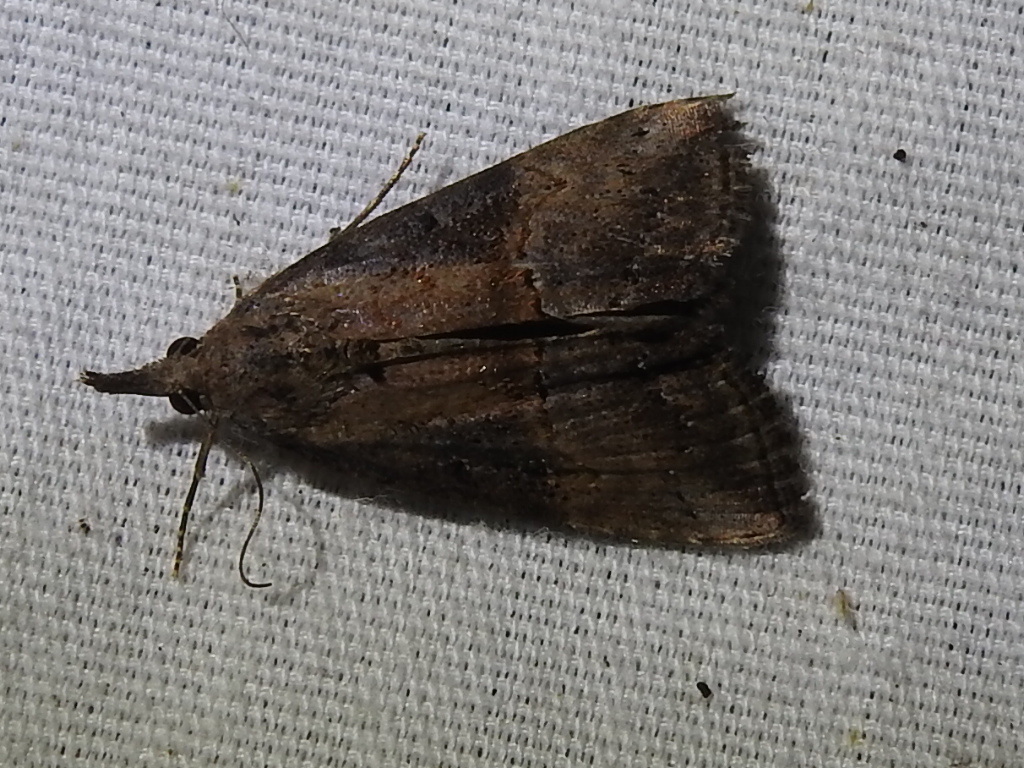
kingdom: Animalia
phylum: Arthropoda
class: Insecta
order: Lepidoptera
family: Erebidae
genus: Hypena
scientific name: Hypena scabra
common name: Green cloverworm
